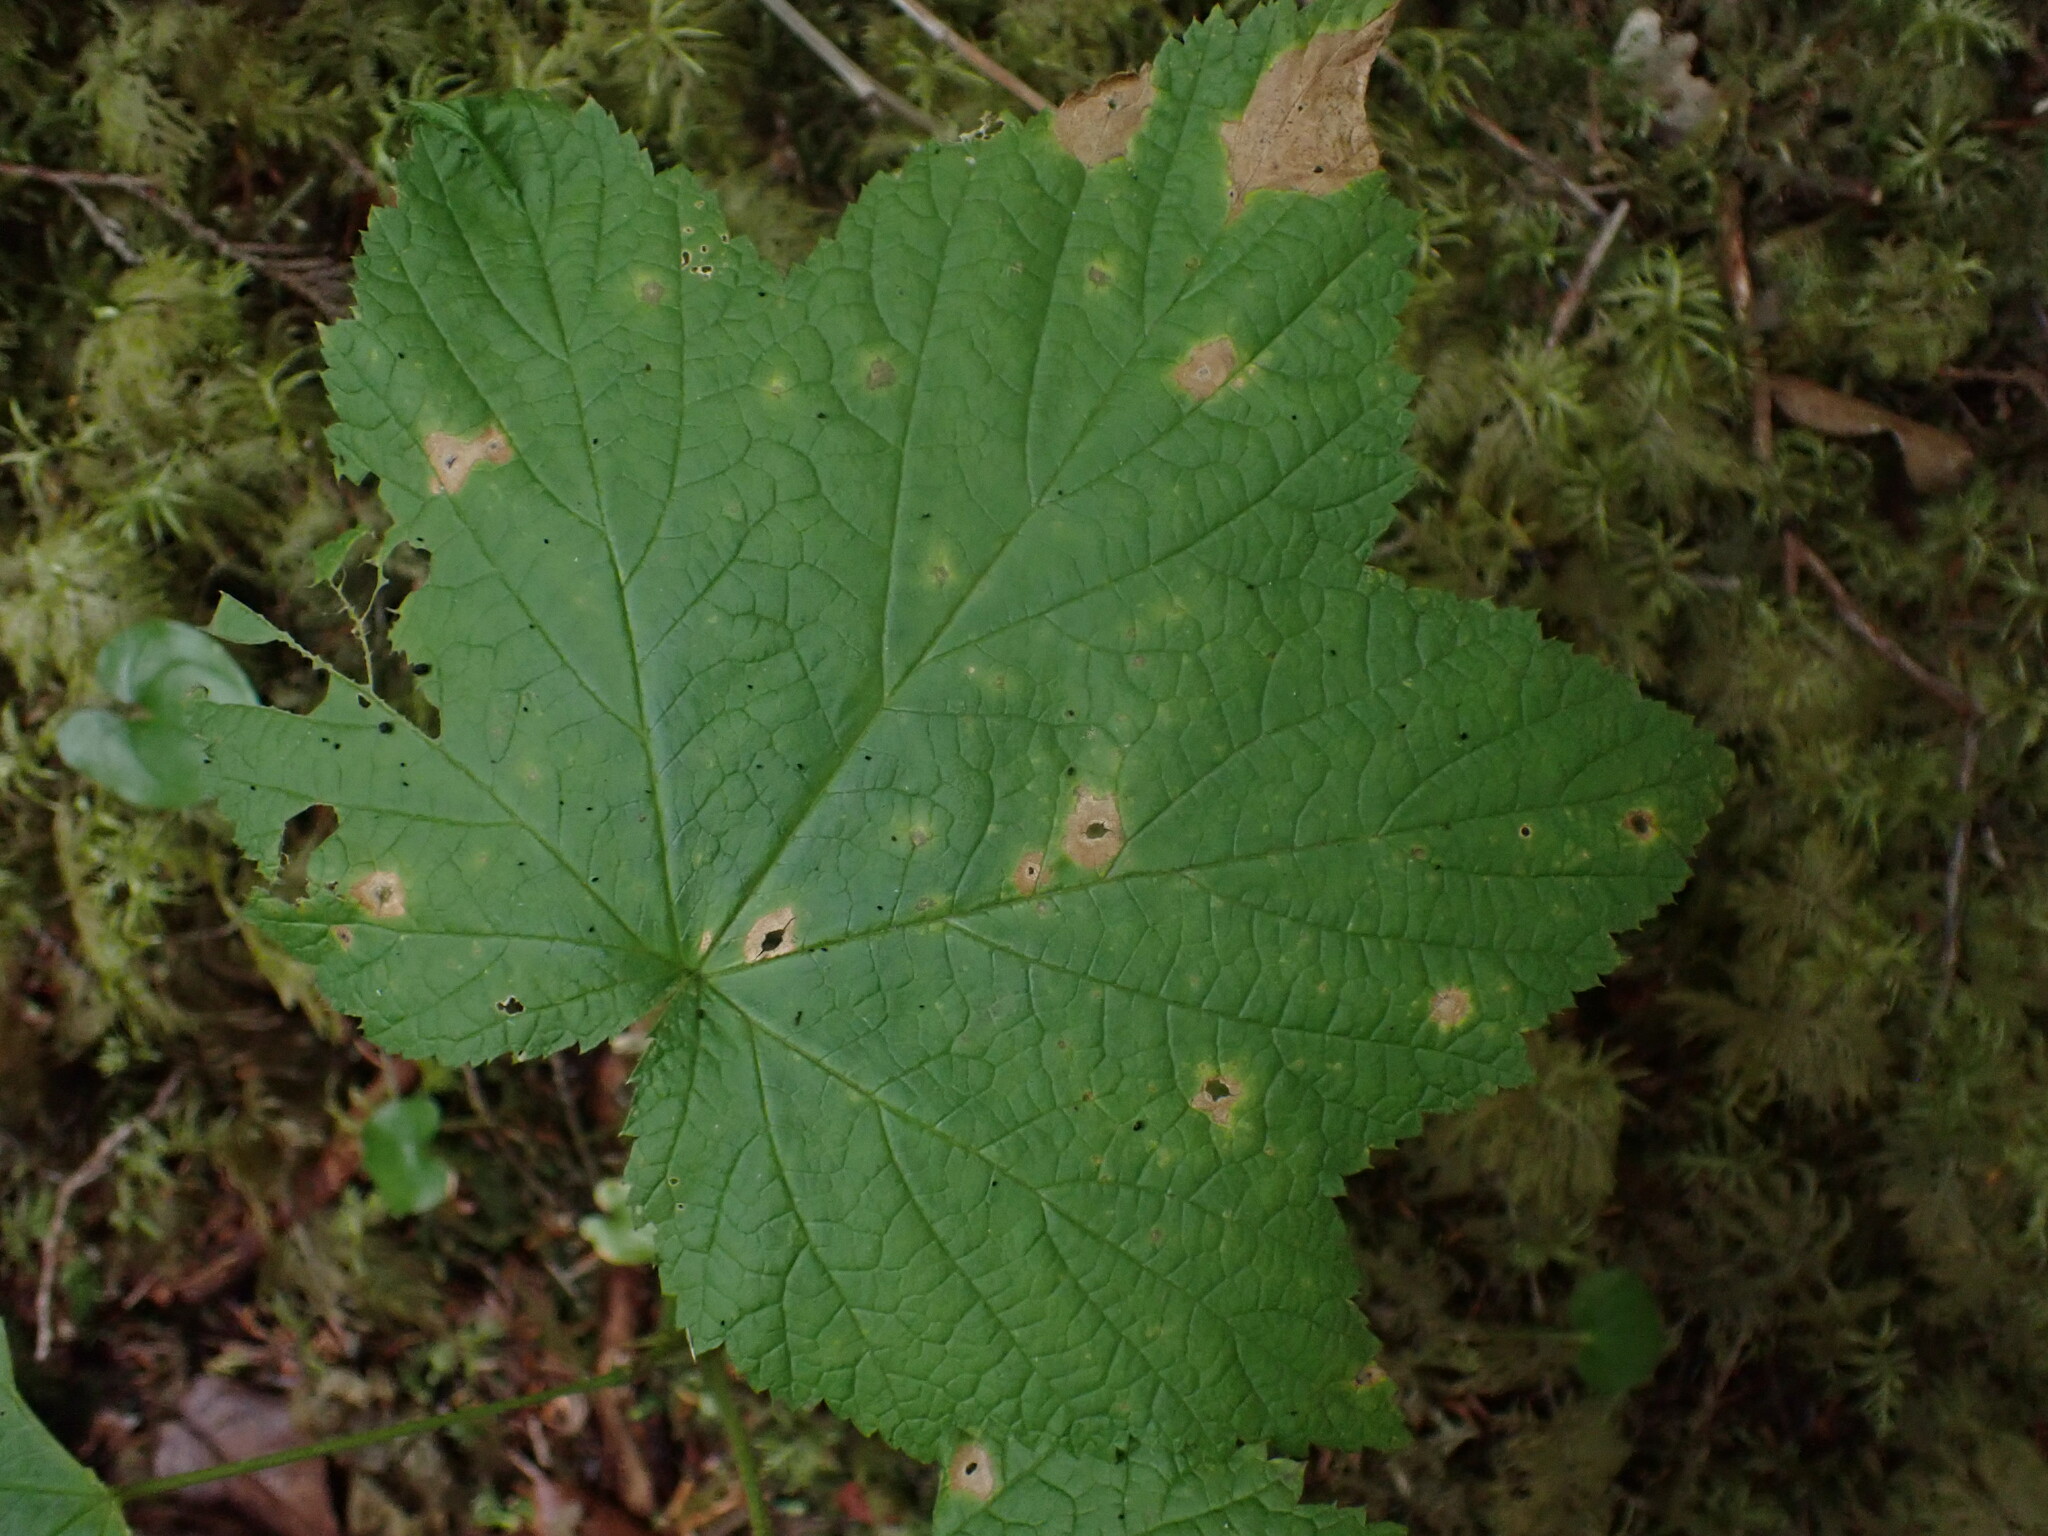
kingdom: Plantae
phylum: Tracheophyta
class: Magnoliopsida
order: Rosales
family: Rosaceae
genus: Rubus
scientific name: Rubus parviflorus
